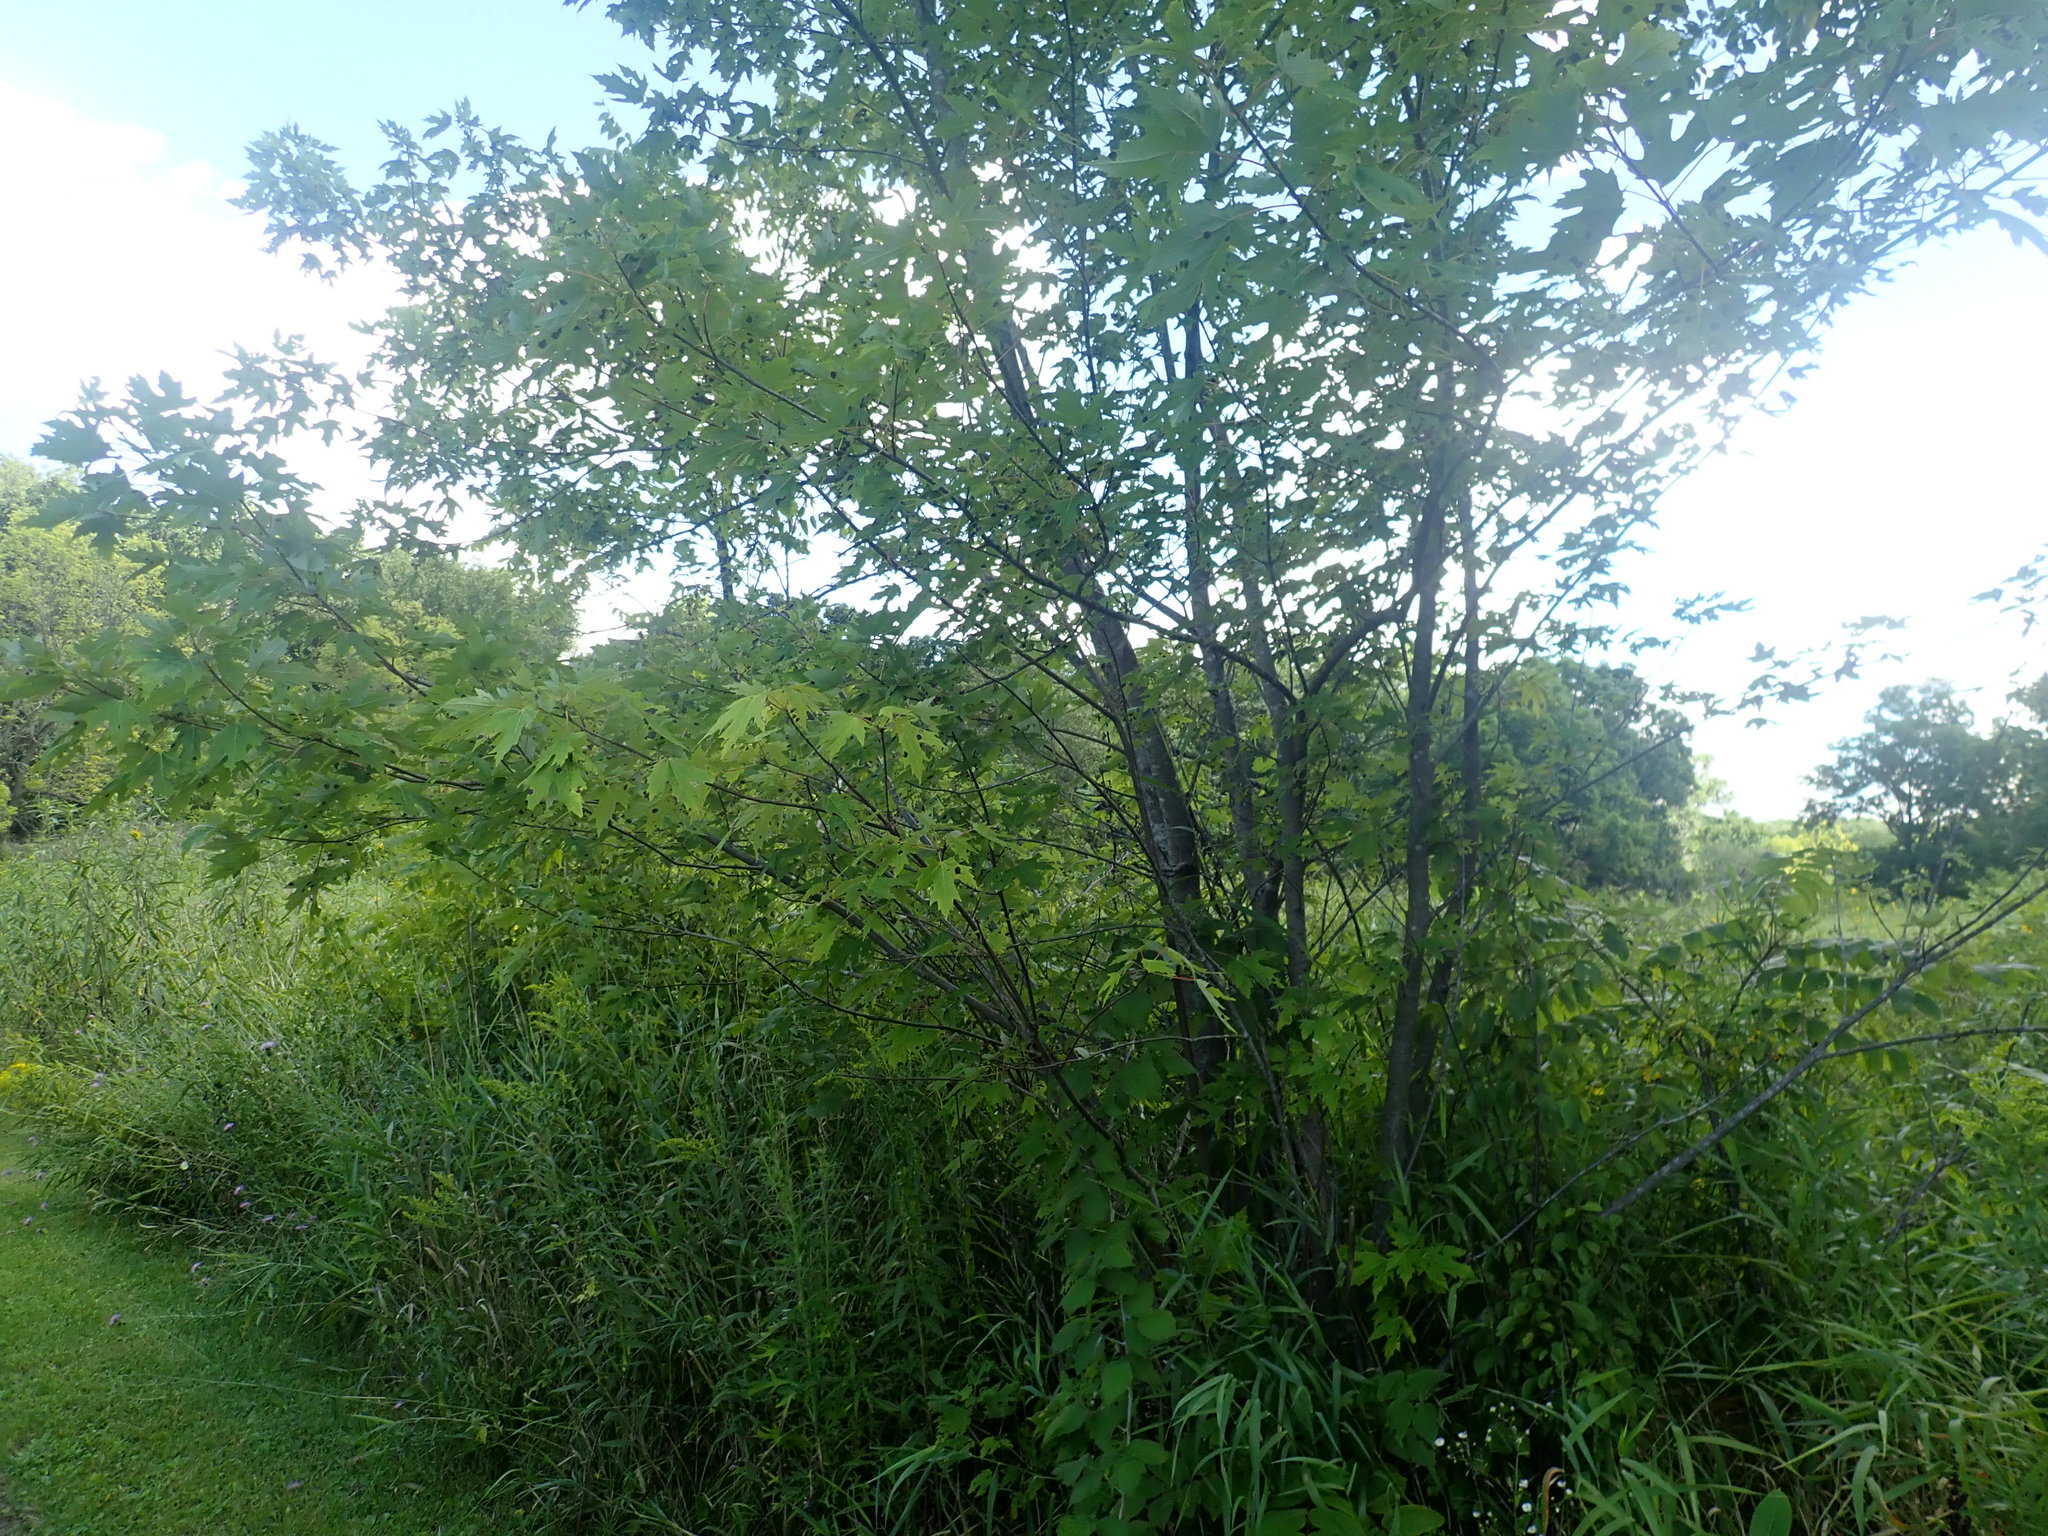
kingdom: Plantae
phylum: Tracheophyta
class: Magnoliopsida
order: Sapindales
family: Sapindaceae
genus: Acer
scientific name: Acer saccharinum
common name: Silver maple
